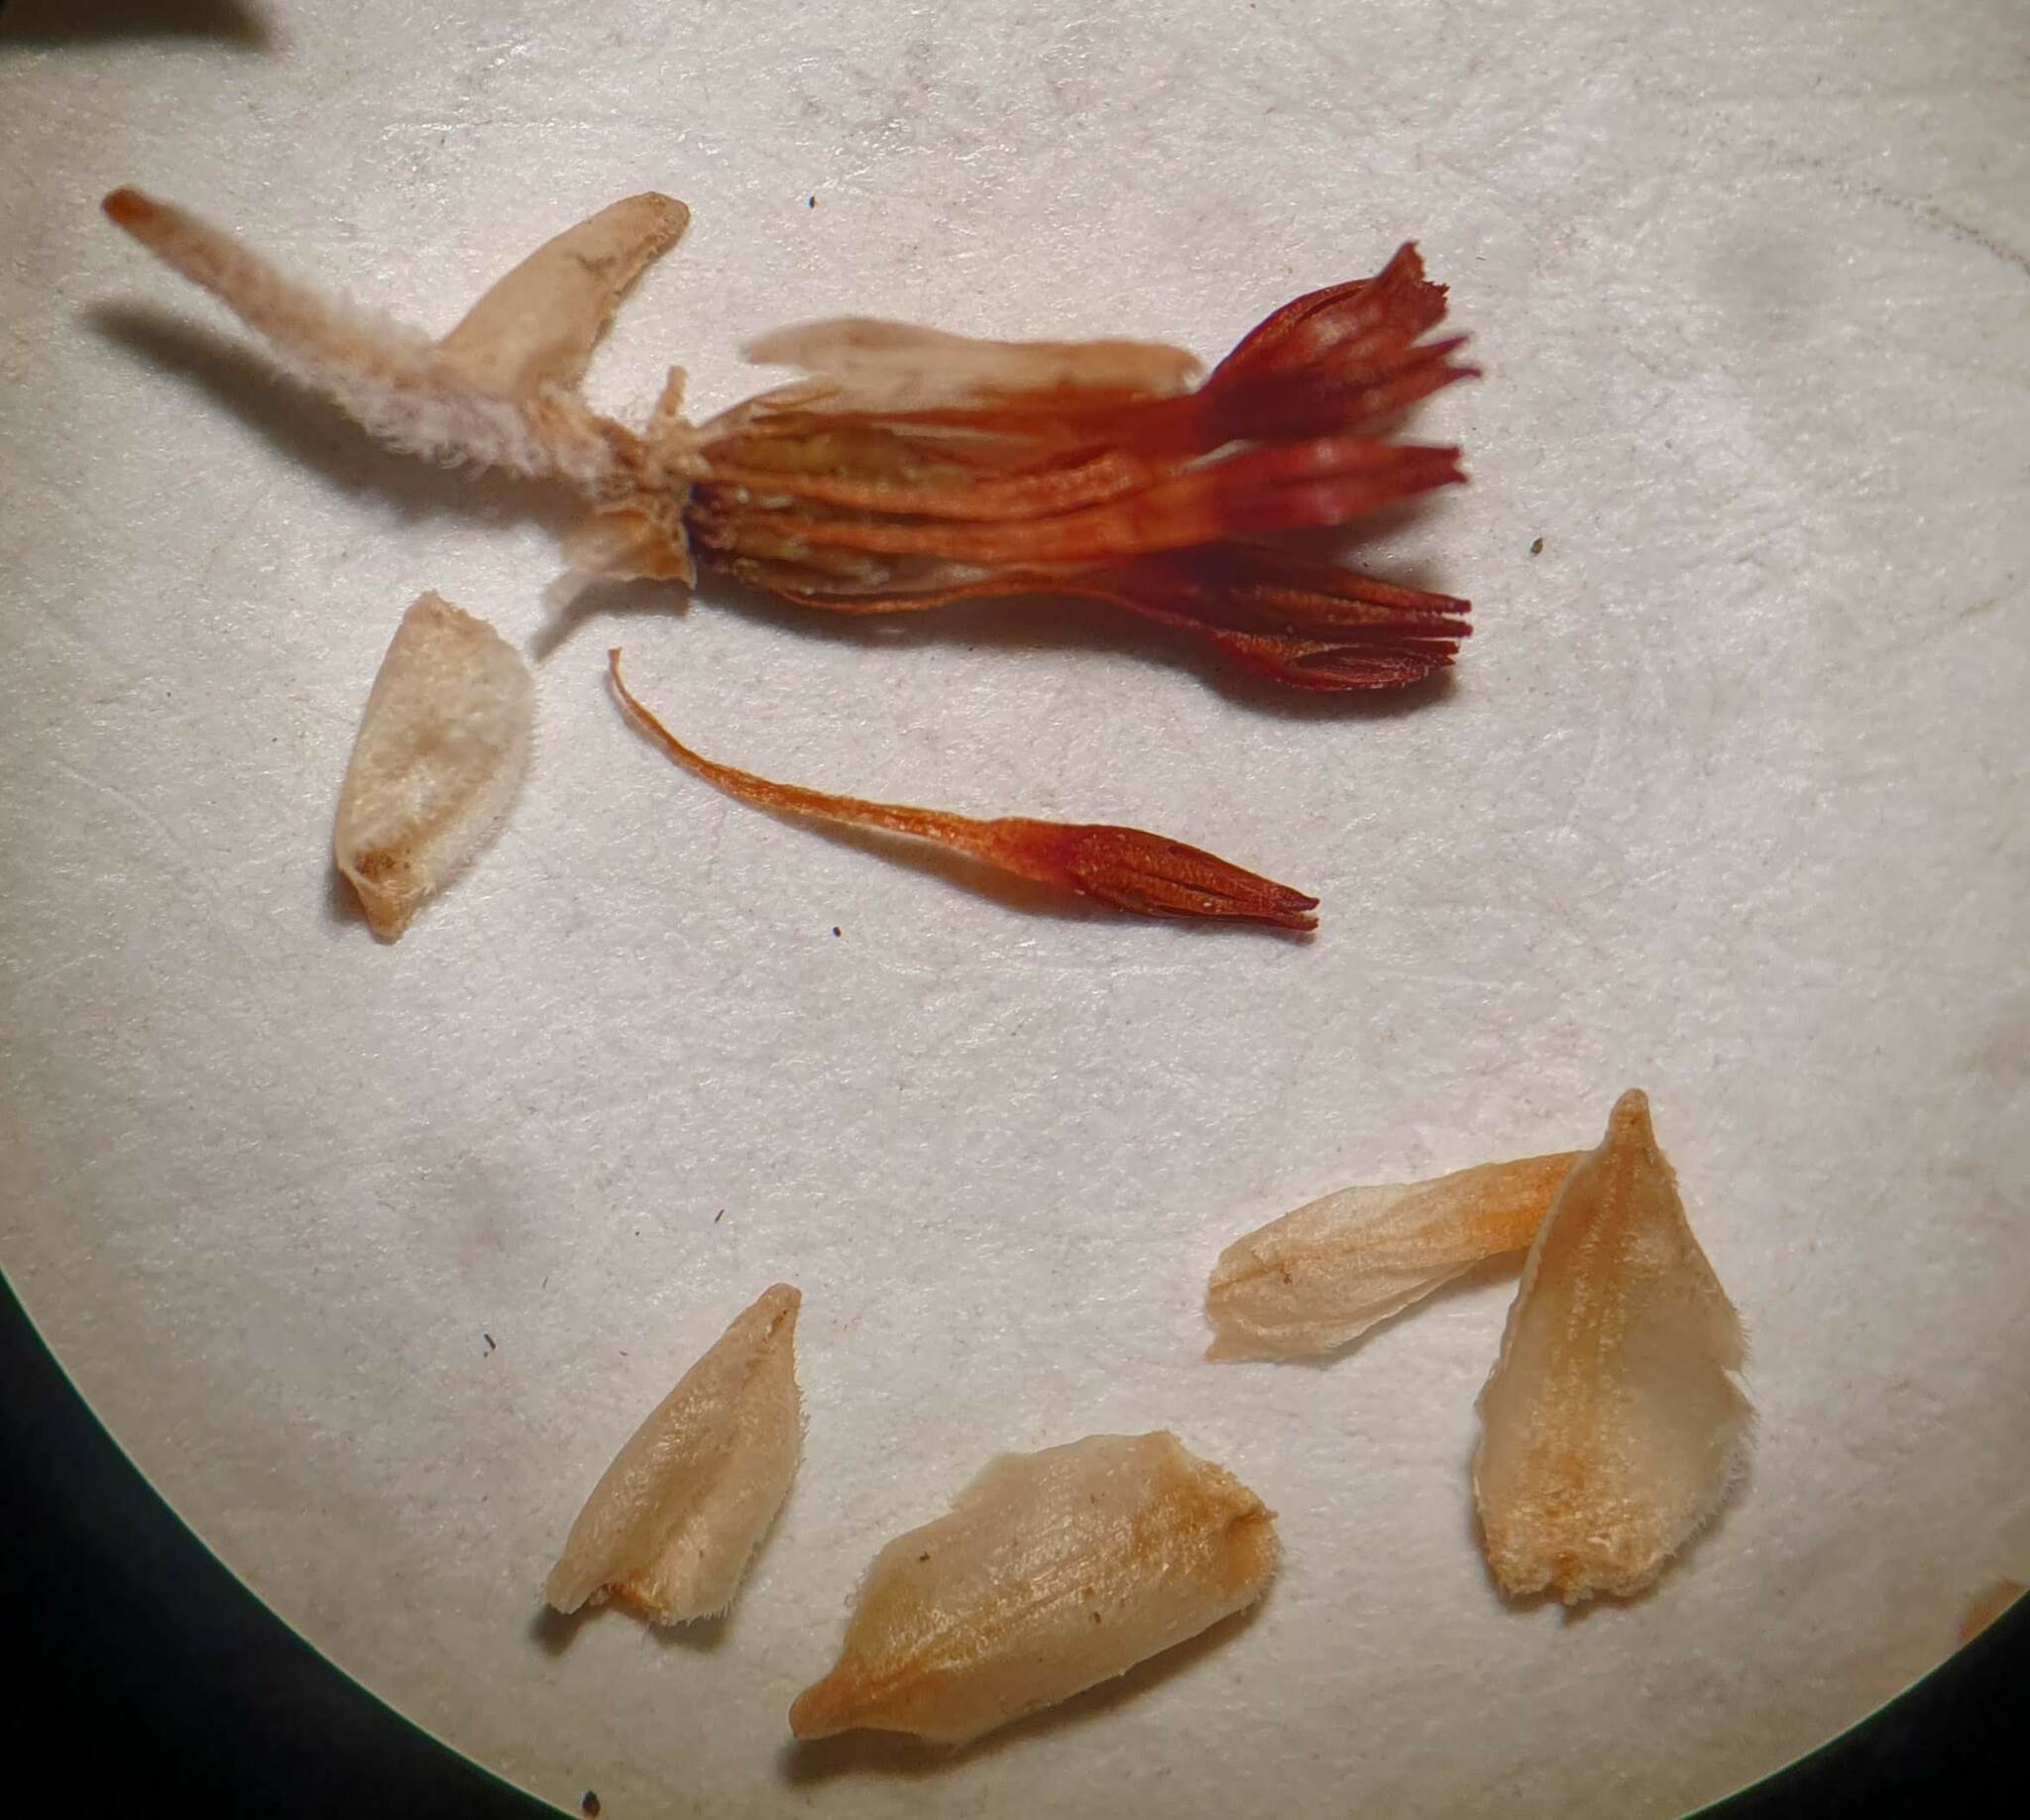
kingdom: Plantae
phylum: Tracheophyta
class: Magnoliopsida
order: Ericales
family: Ericaceae
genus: Erica
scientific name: Erica penicilliformis
